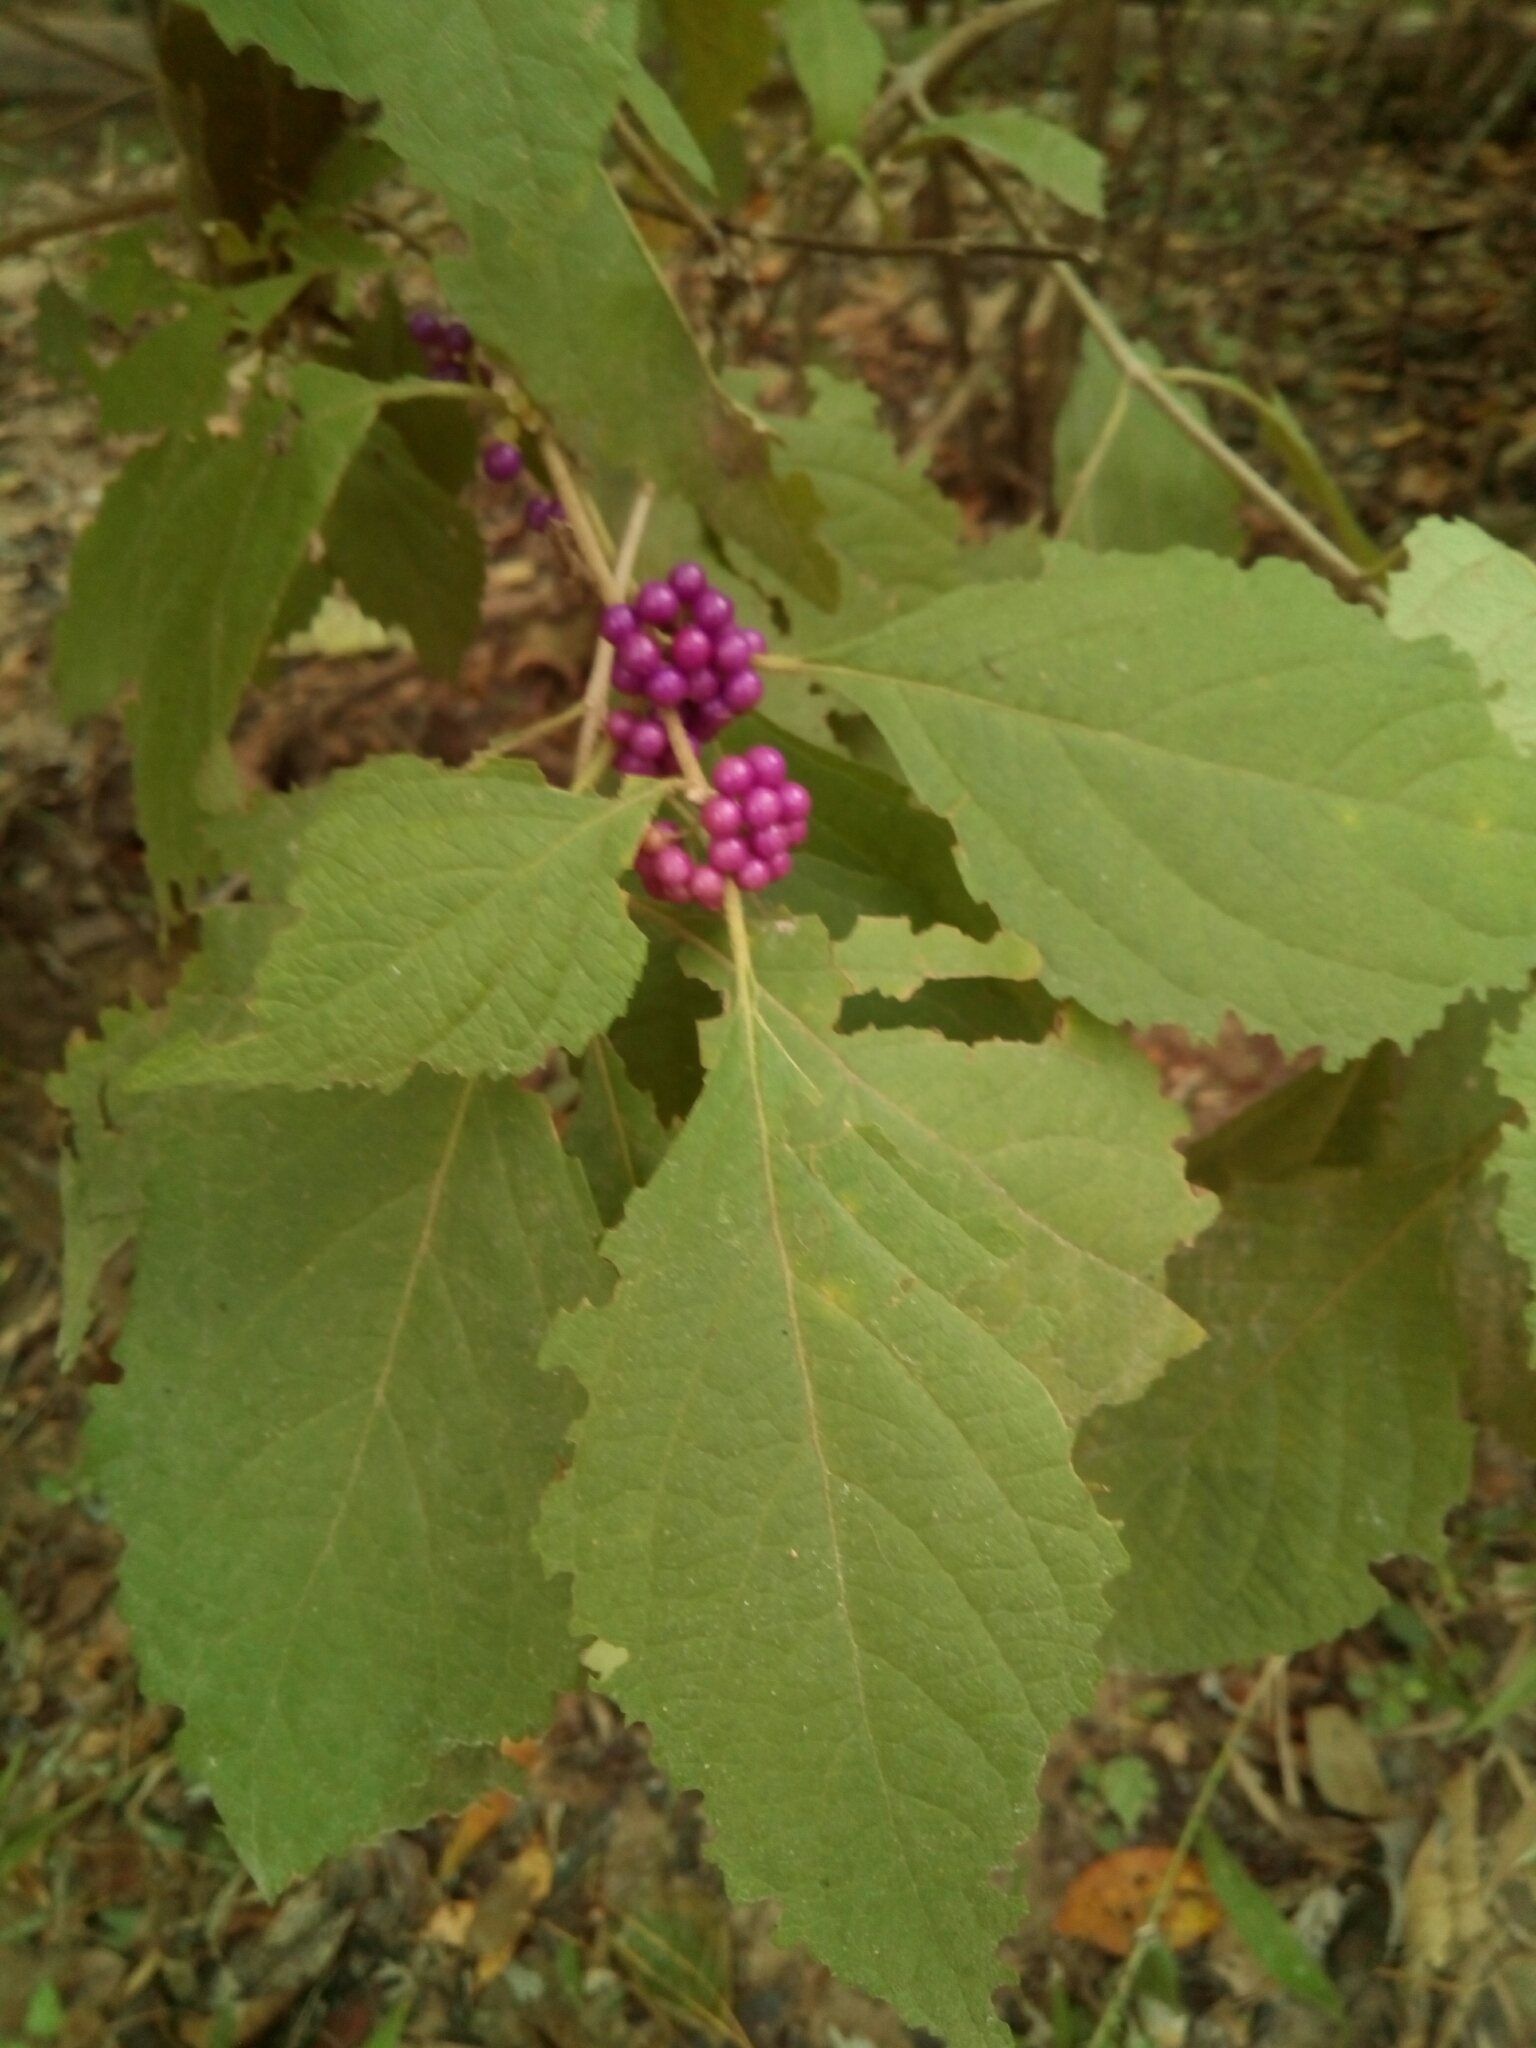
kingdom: Plantae
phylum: Tracheophyta
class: Magnoliopsida
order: Lamiales
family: Lamiaceae
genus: Callicarpa
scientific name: Callicarpa americana
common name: American beautyberry
